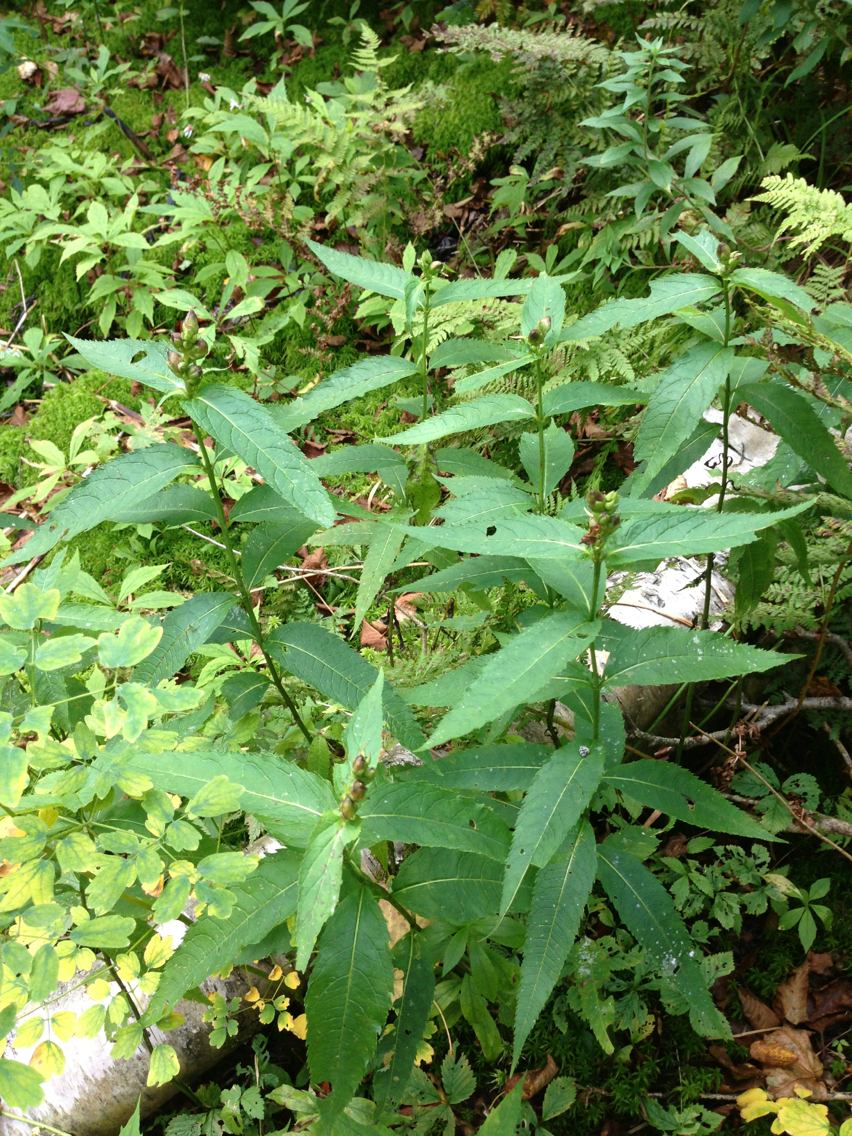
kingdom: Plantae
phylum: Tracheophyta
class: Magnoliopsida
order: Lamiales
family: Plantaginaceae
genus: Chelone
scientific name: Chelone glabra
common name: Snakehead
